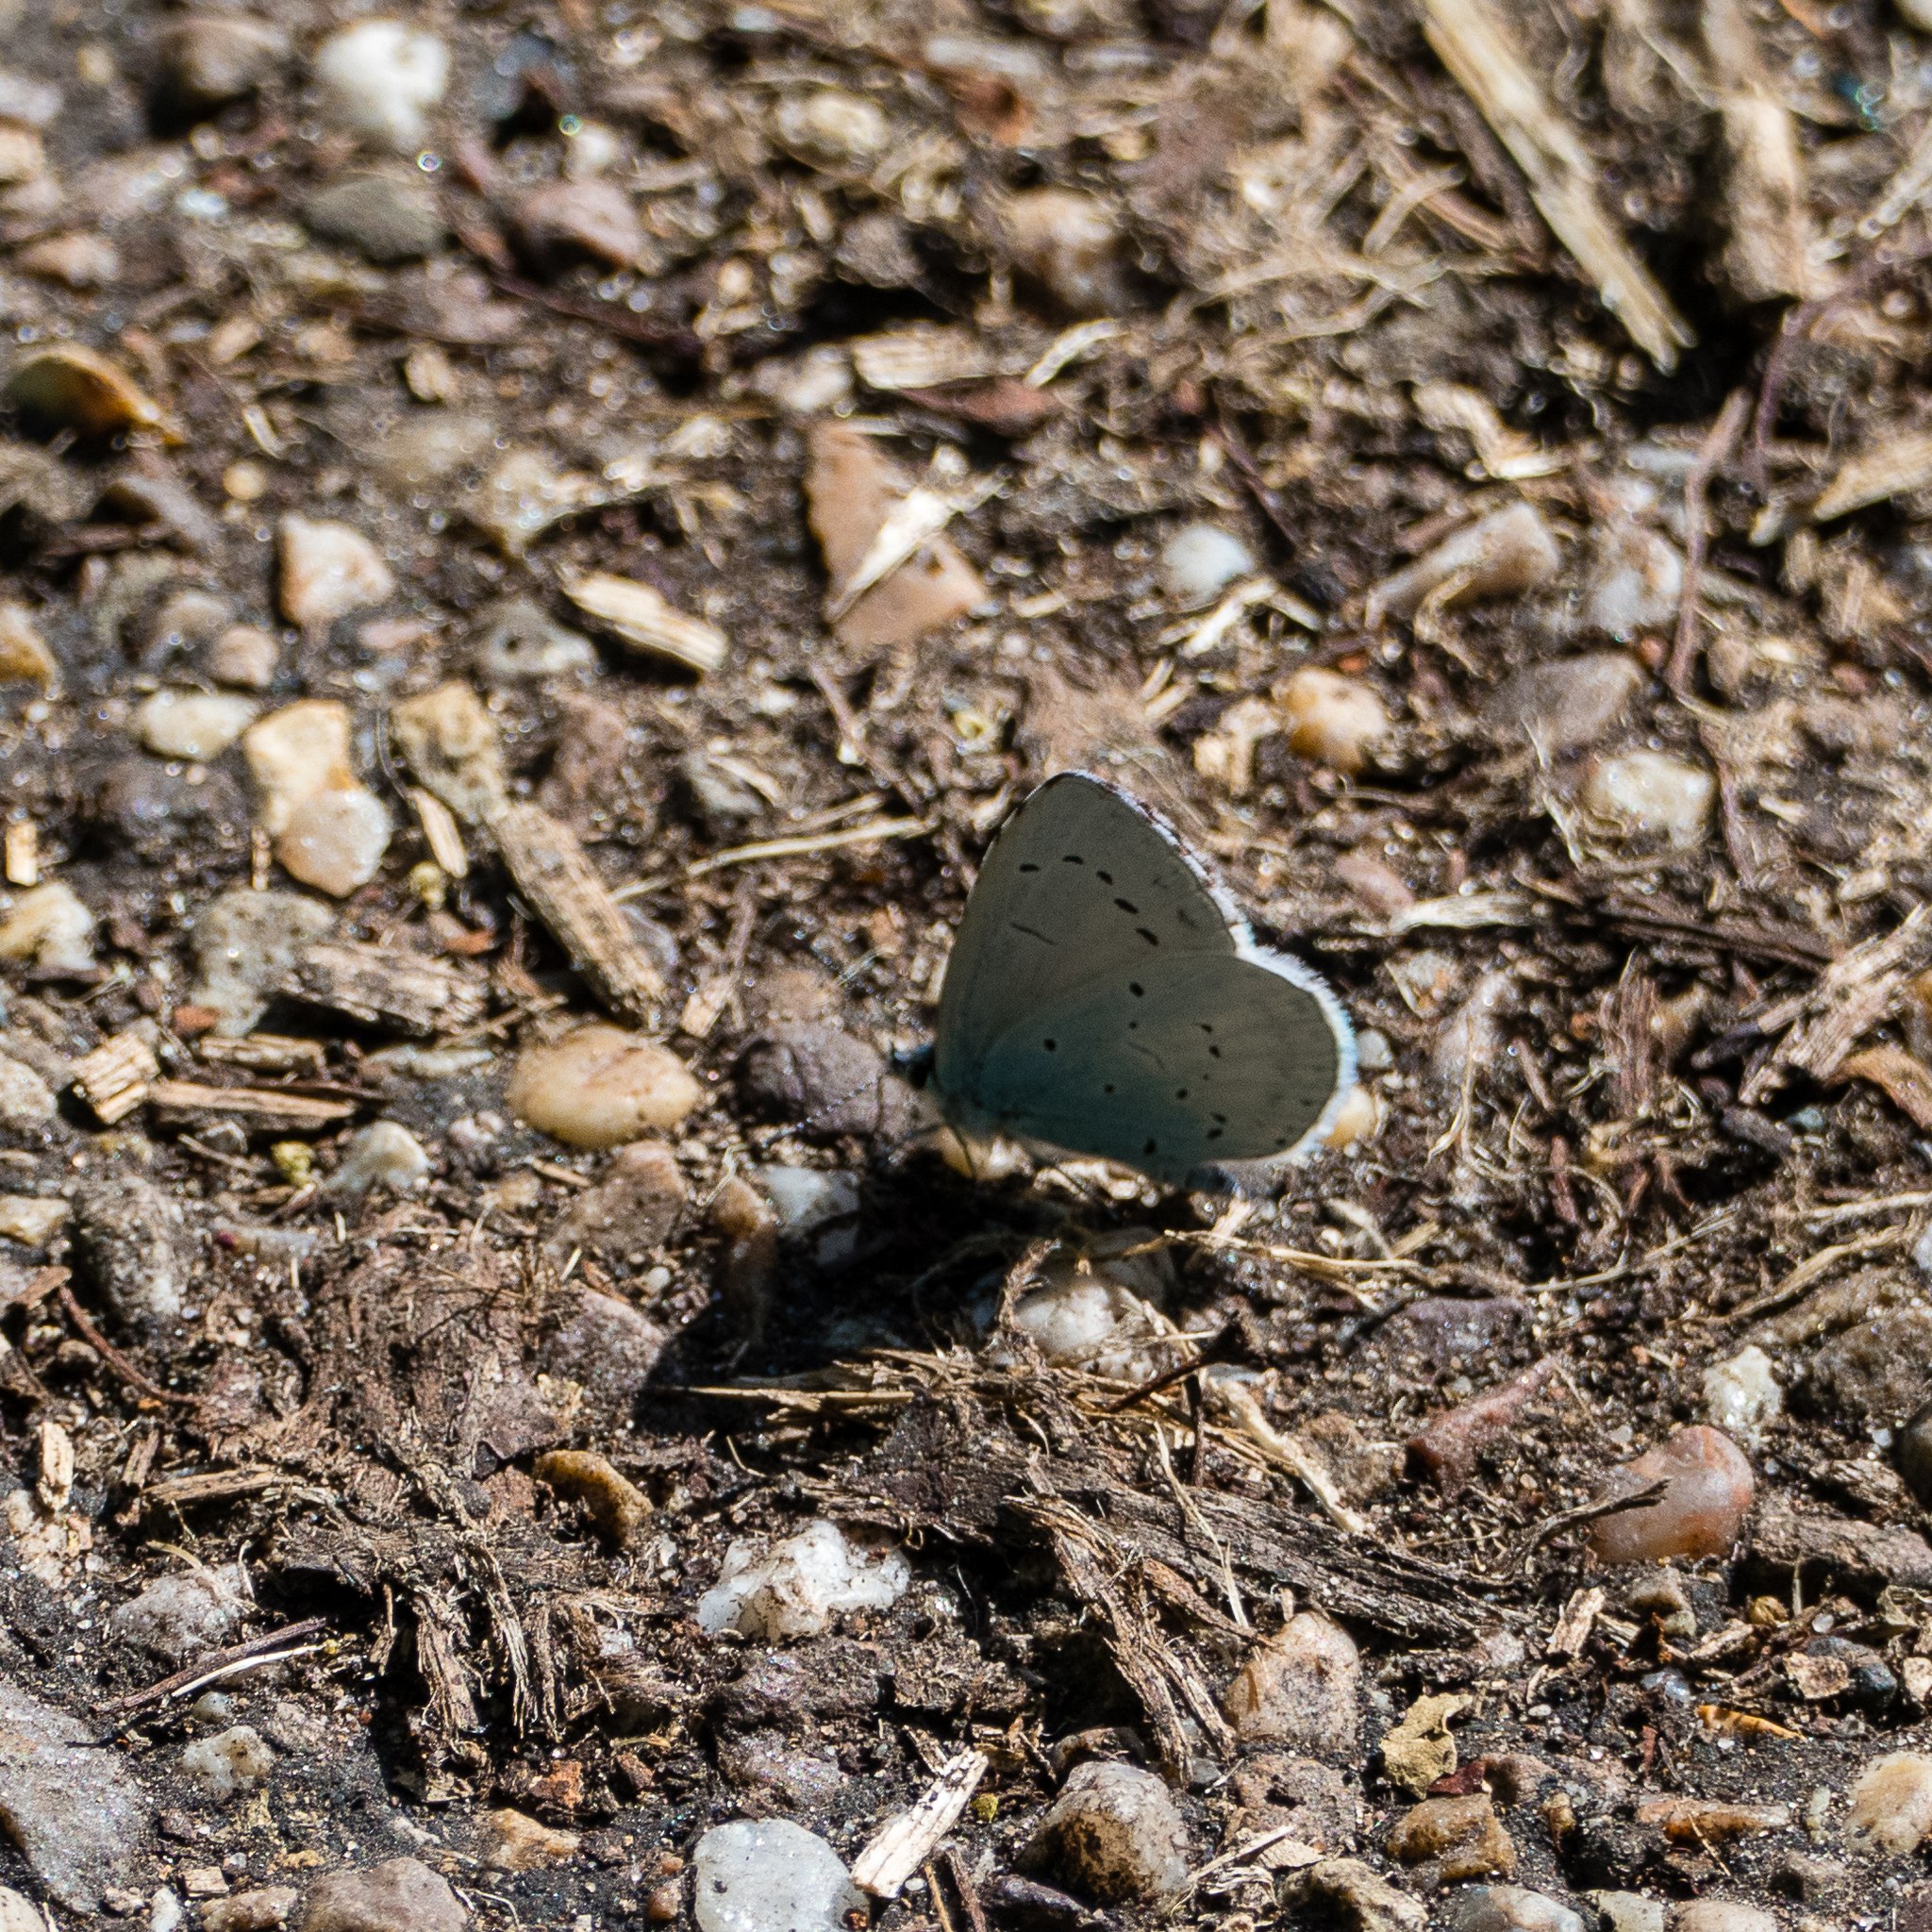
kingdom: Animalia
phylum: Arthropoda
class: Insecta
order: Lepidoptera
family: Lycaenidae
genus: Celastrina
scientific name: Celastrina argiolus
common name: Holly blue
